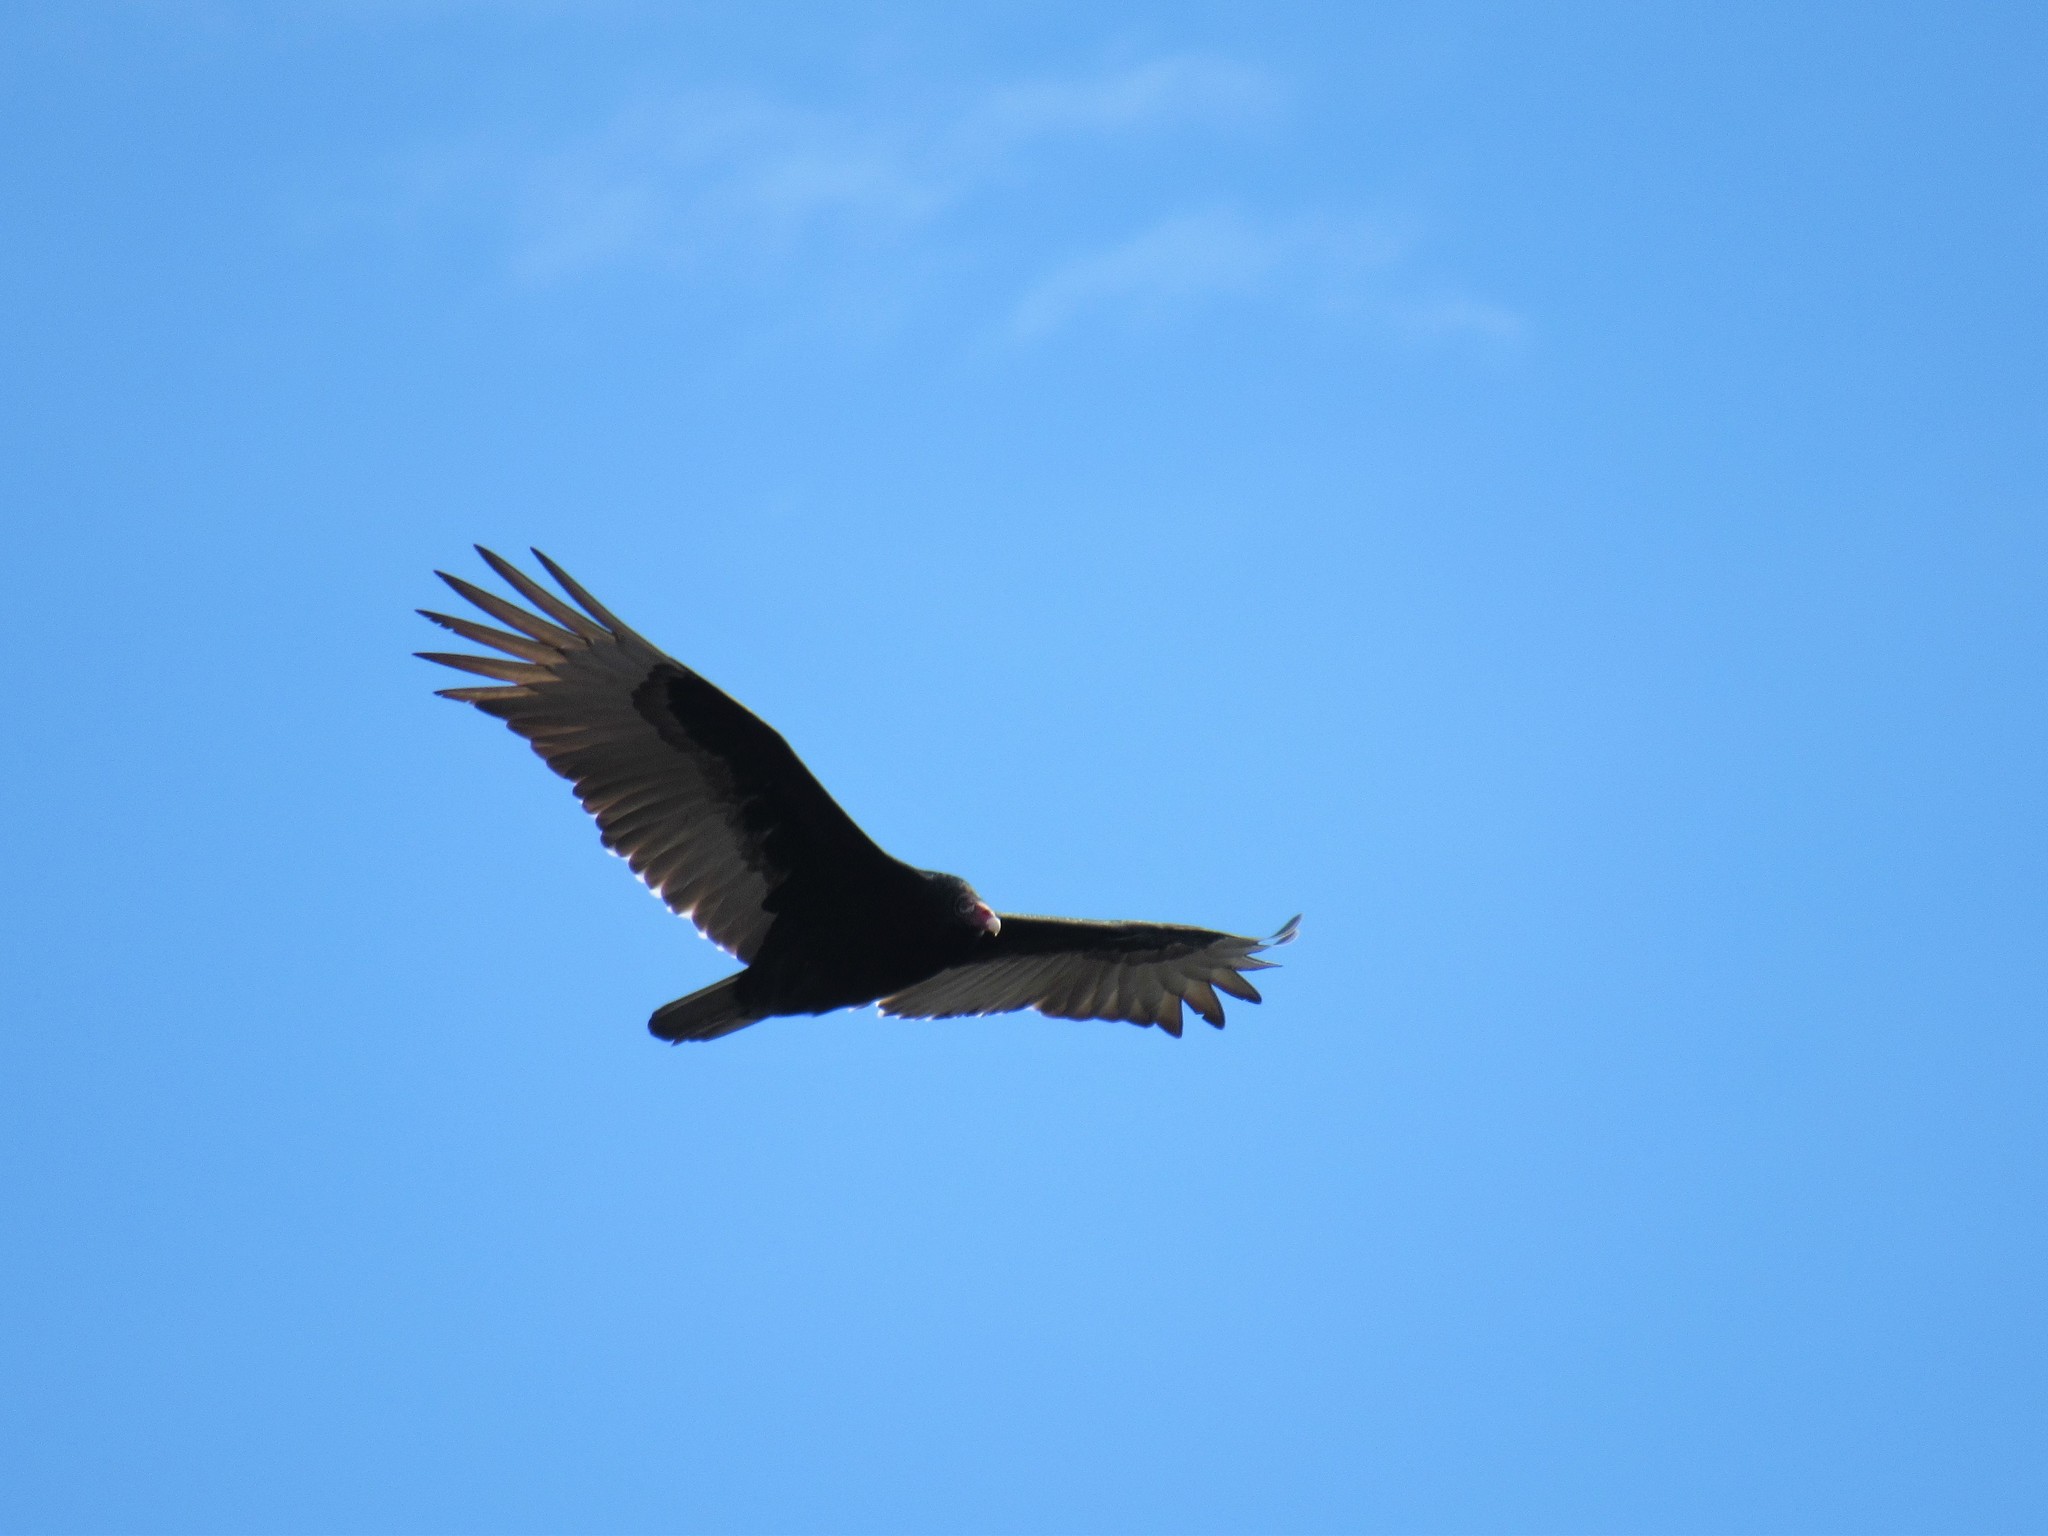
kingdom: Animalia
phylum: Chordata
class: Aves
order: Accipitriformes
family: Cathartidae
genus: Cathartes
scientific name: Cathartes aura
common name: Turkey vulture
